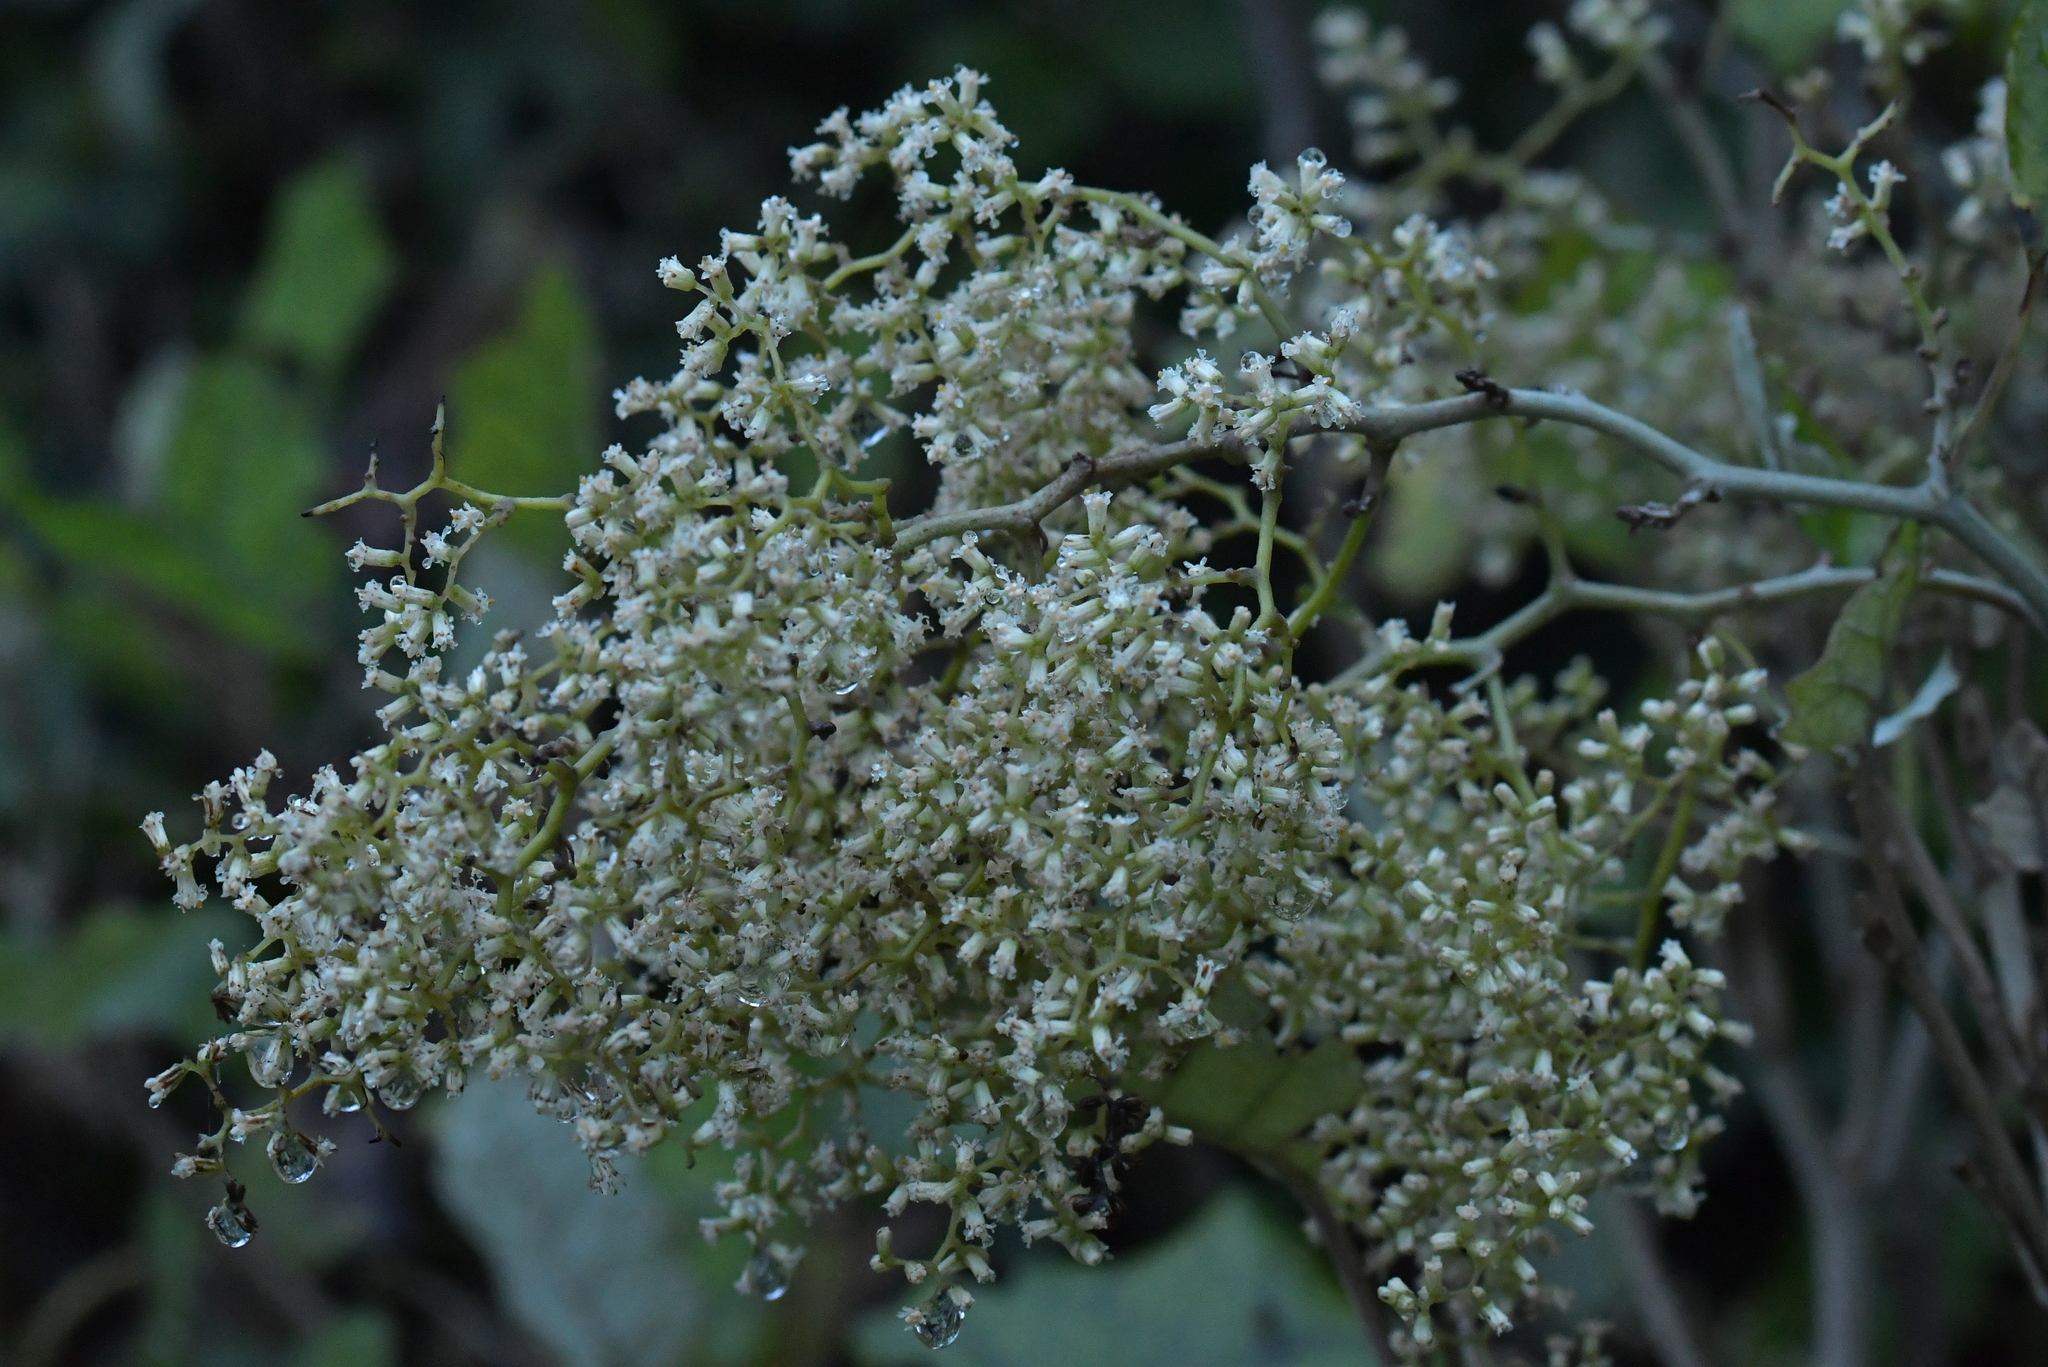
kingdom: Plantae
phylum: Tracheophyta
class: Magnoliopsida
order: Asterales
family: Asteraceae
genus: Brachyglottis
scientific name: Brachyglottis repanda
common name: Hedge ragwort
